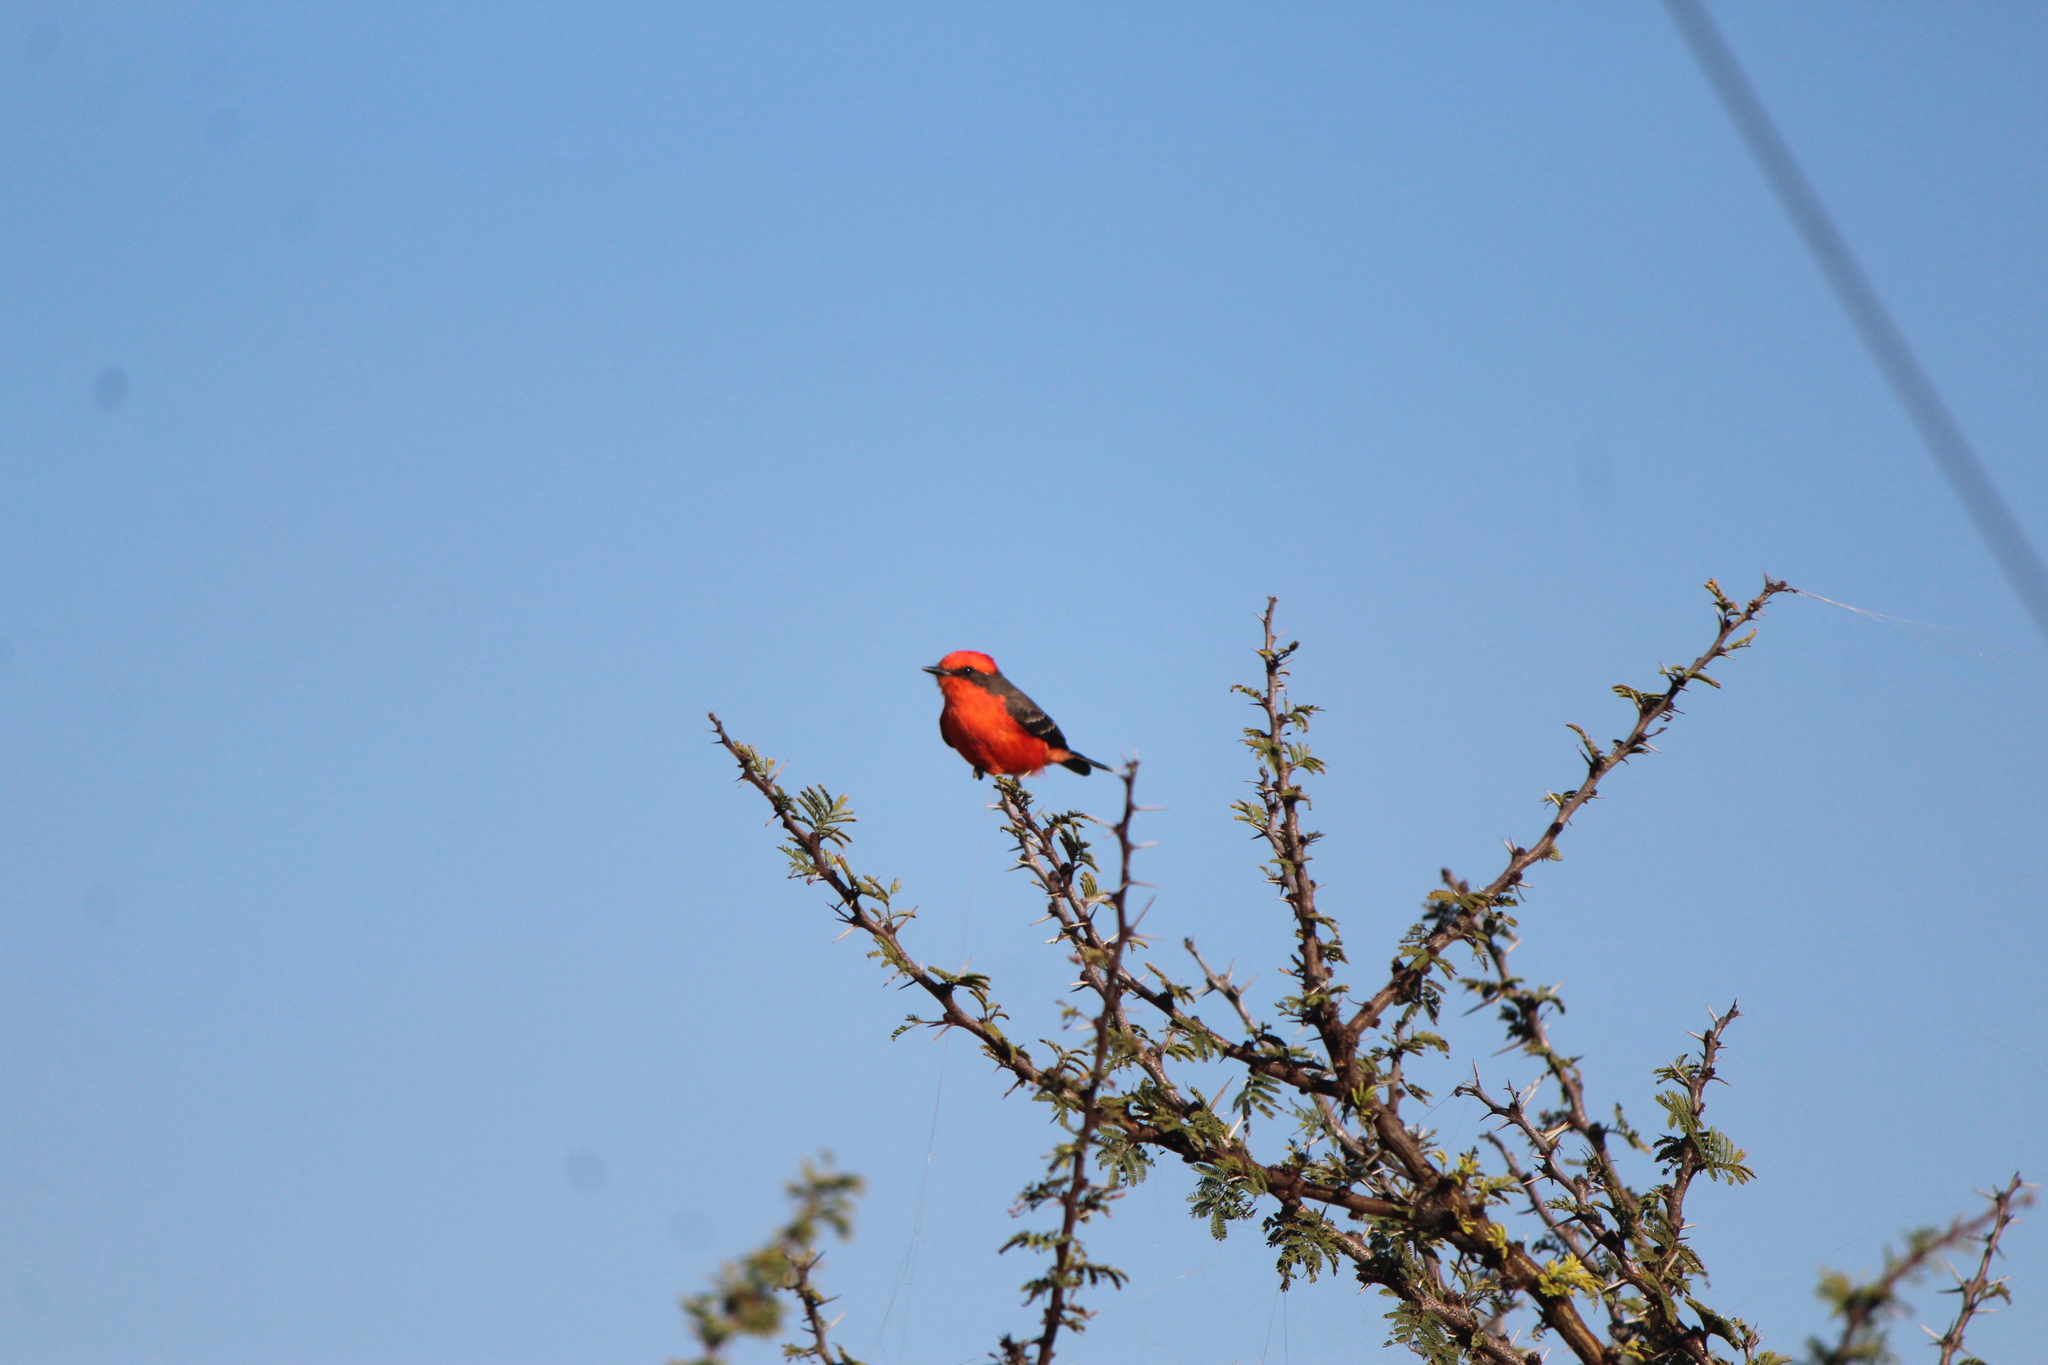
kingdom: Animalia
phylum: Chordata
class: Aves
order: Passeriformes
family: Tyrannidae
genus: Pyrocephalus
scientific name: Pyrocephalus rubinus
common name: Vermilion flycatcher
